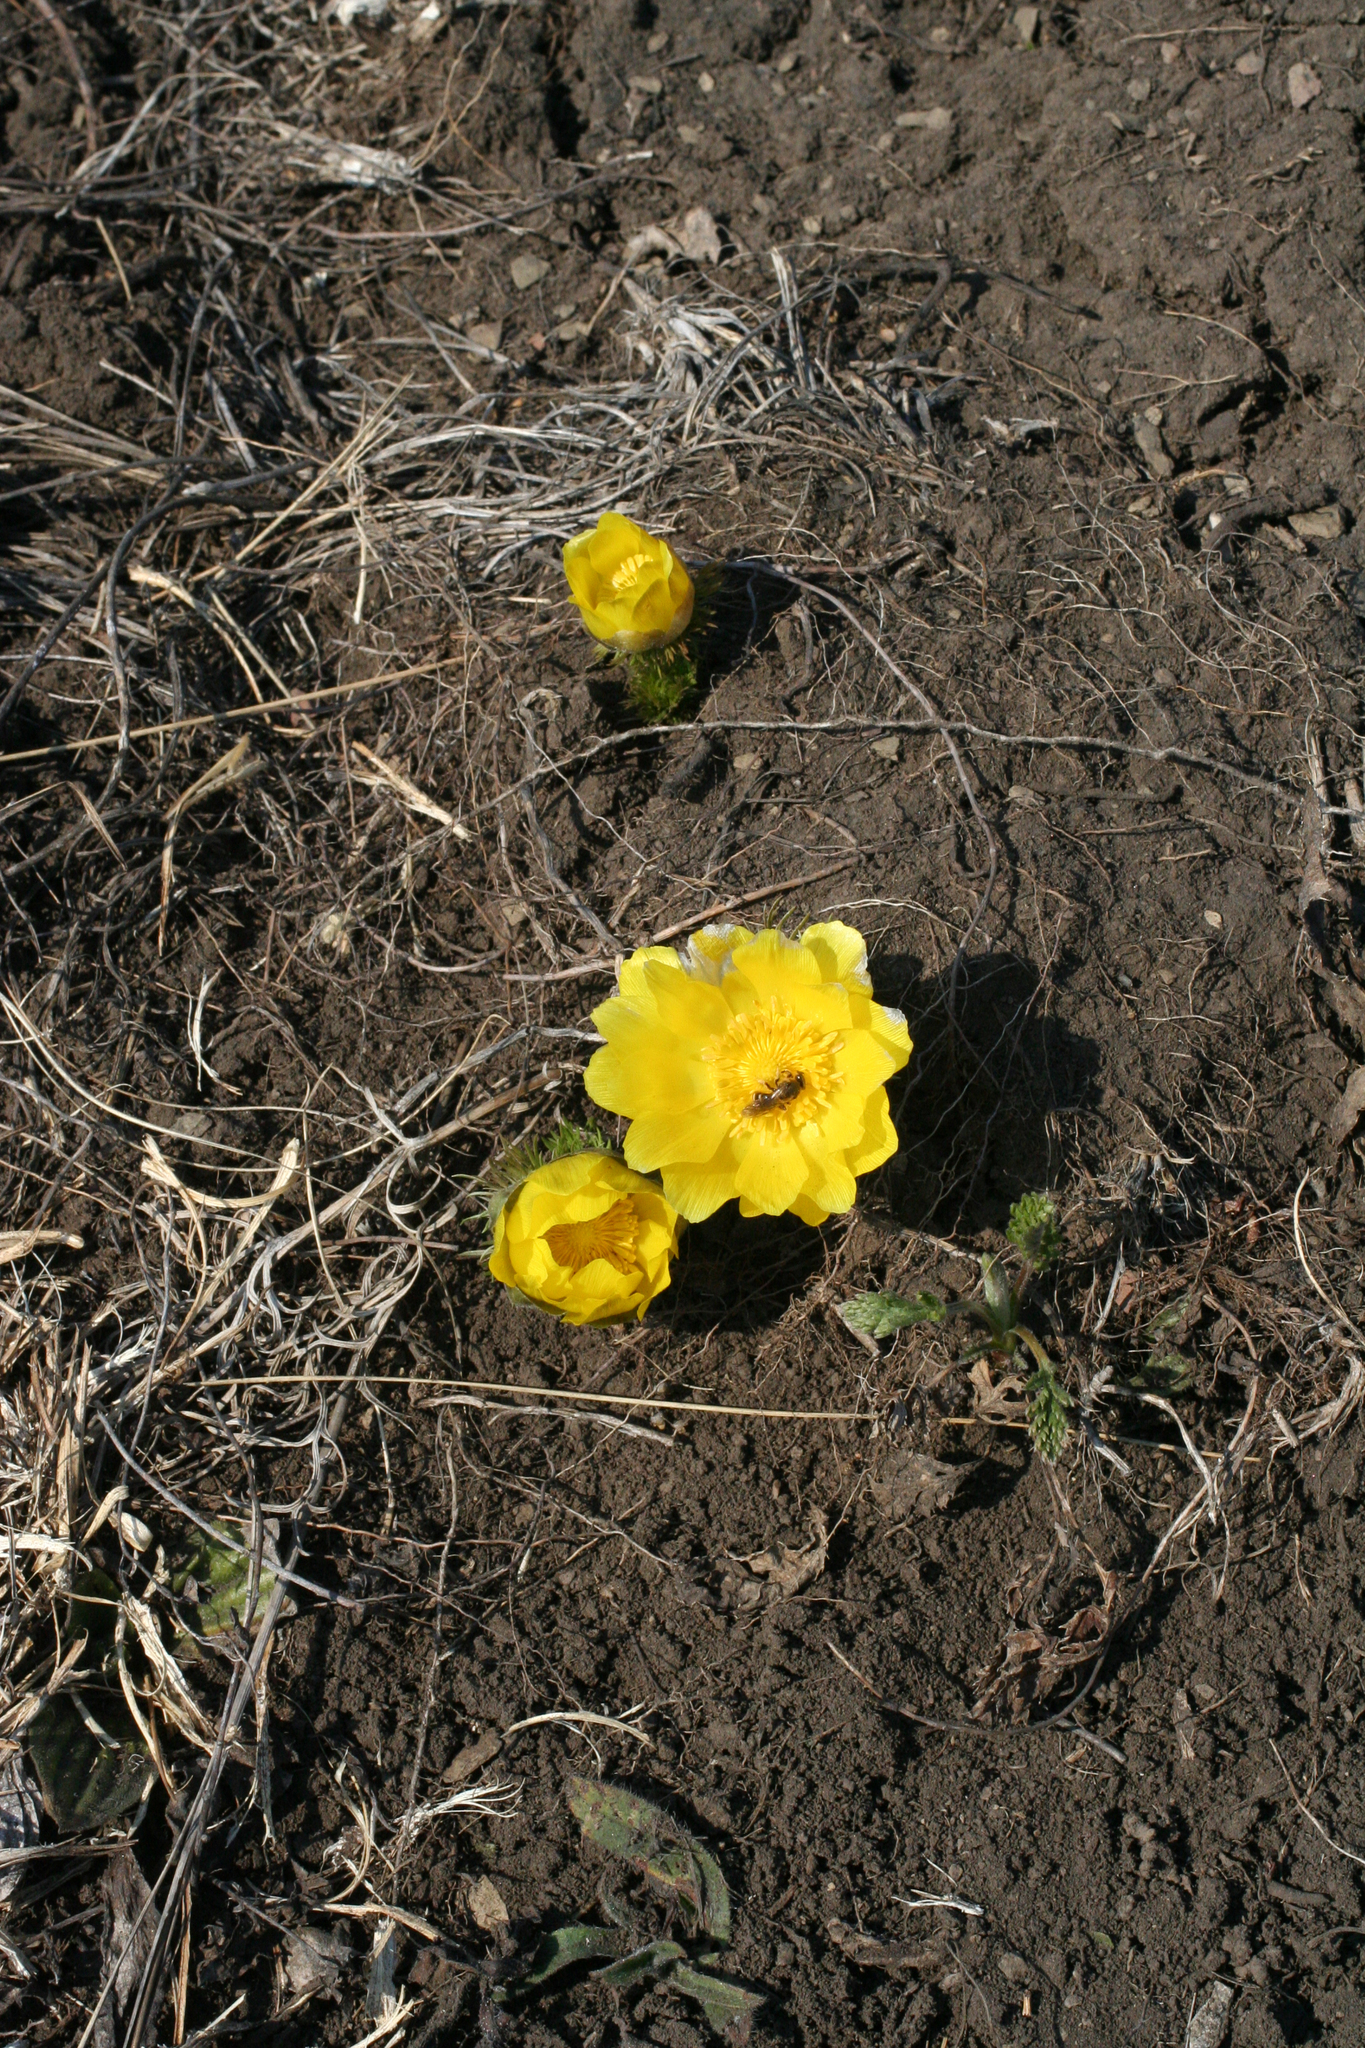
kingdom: Plantae
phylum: Tracheophyta
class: Magnoliopsida
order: Ranunculales
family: Ranunculaceae
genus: Adonis
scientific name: Adonis vernalis
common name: Yellow pheasants-eye
